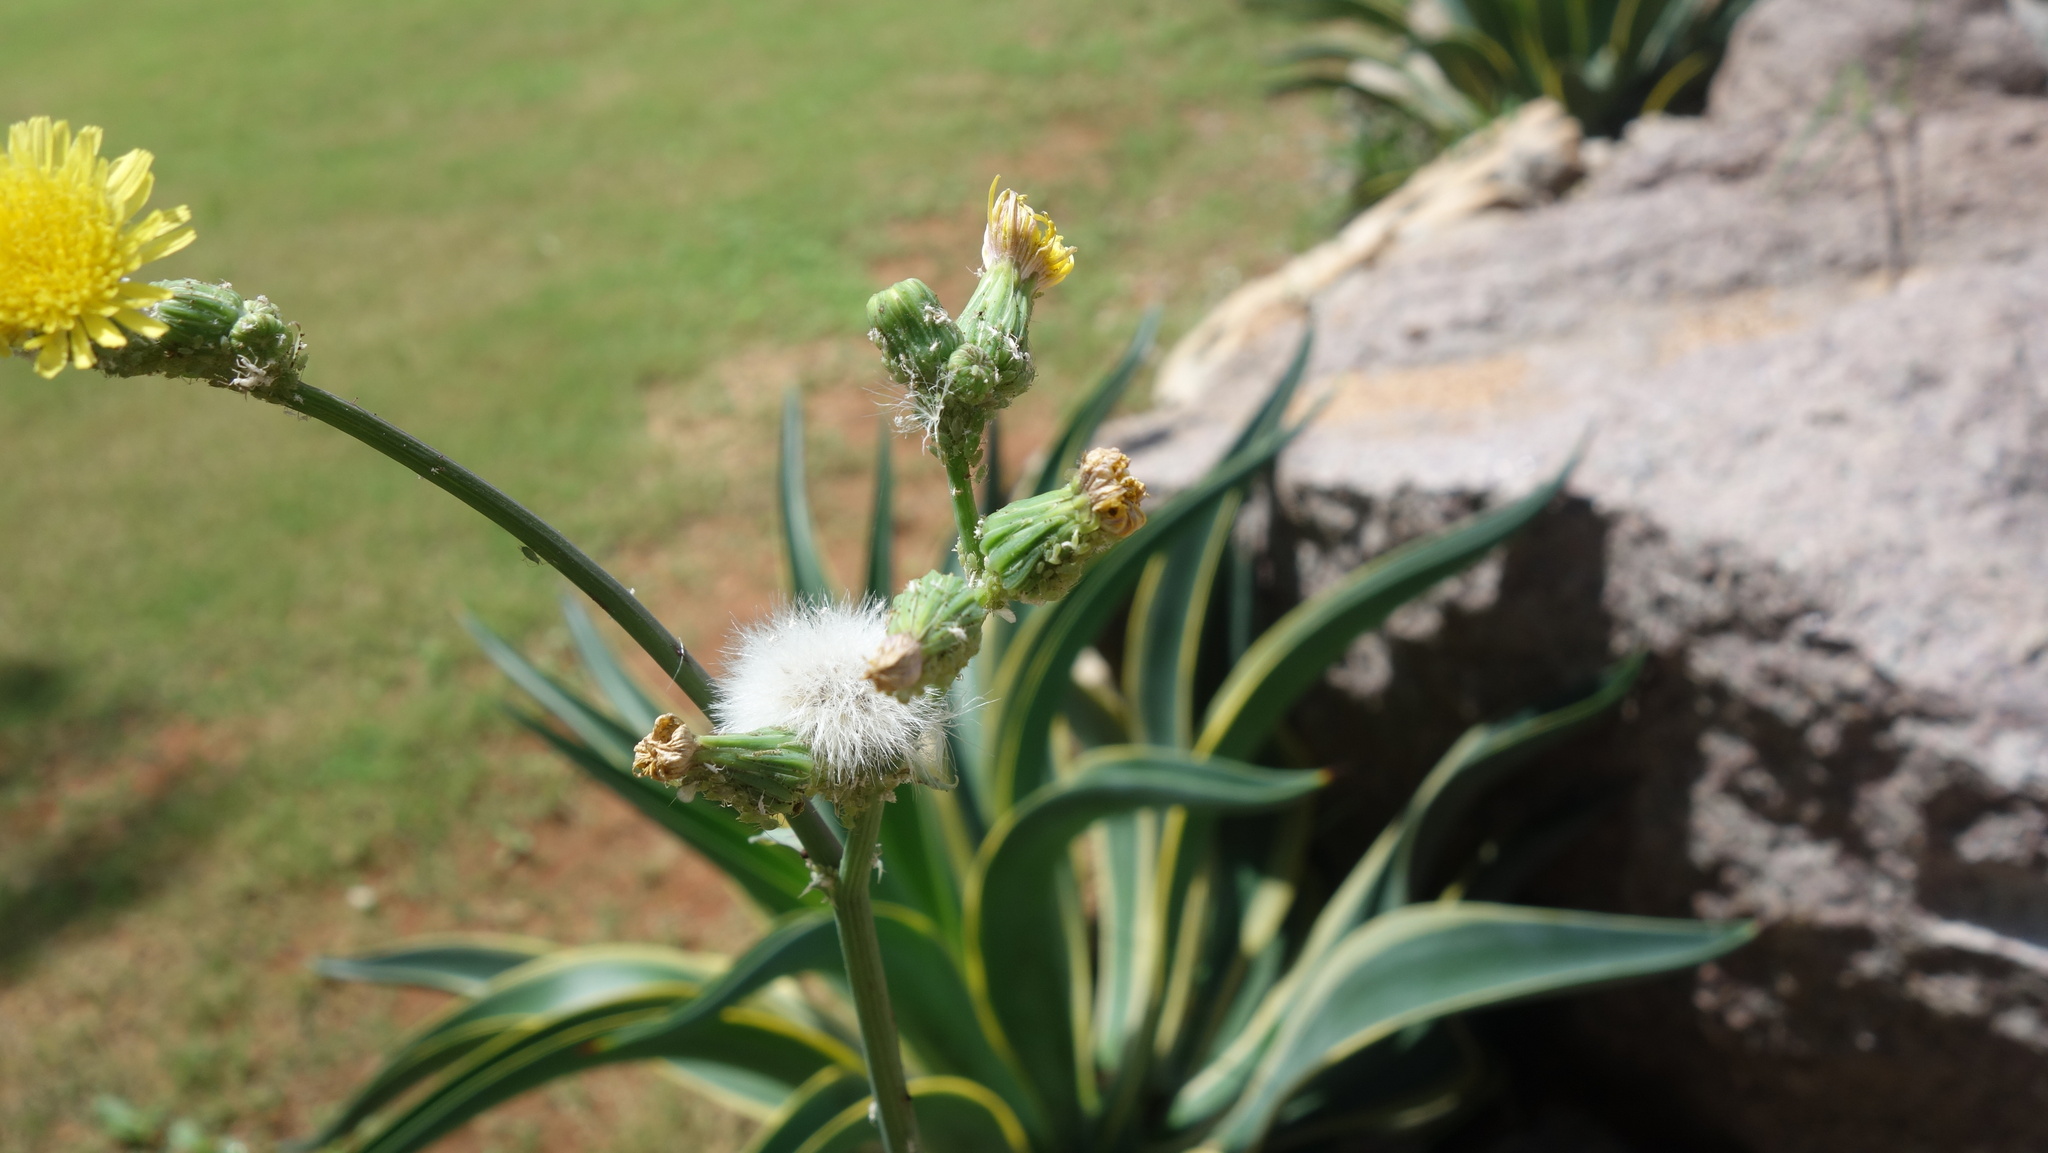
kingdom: Plantae
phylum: Tracheophyta
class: Magnoliopsida
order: Asterales
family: Asteraceae
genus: Sonchus
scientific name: Sonchus oleraceus
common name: Common sowthistle
